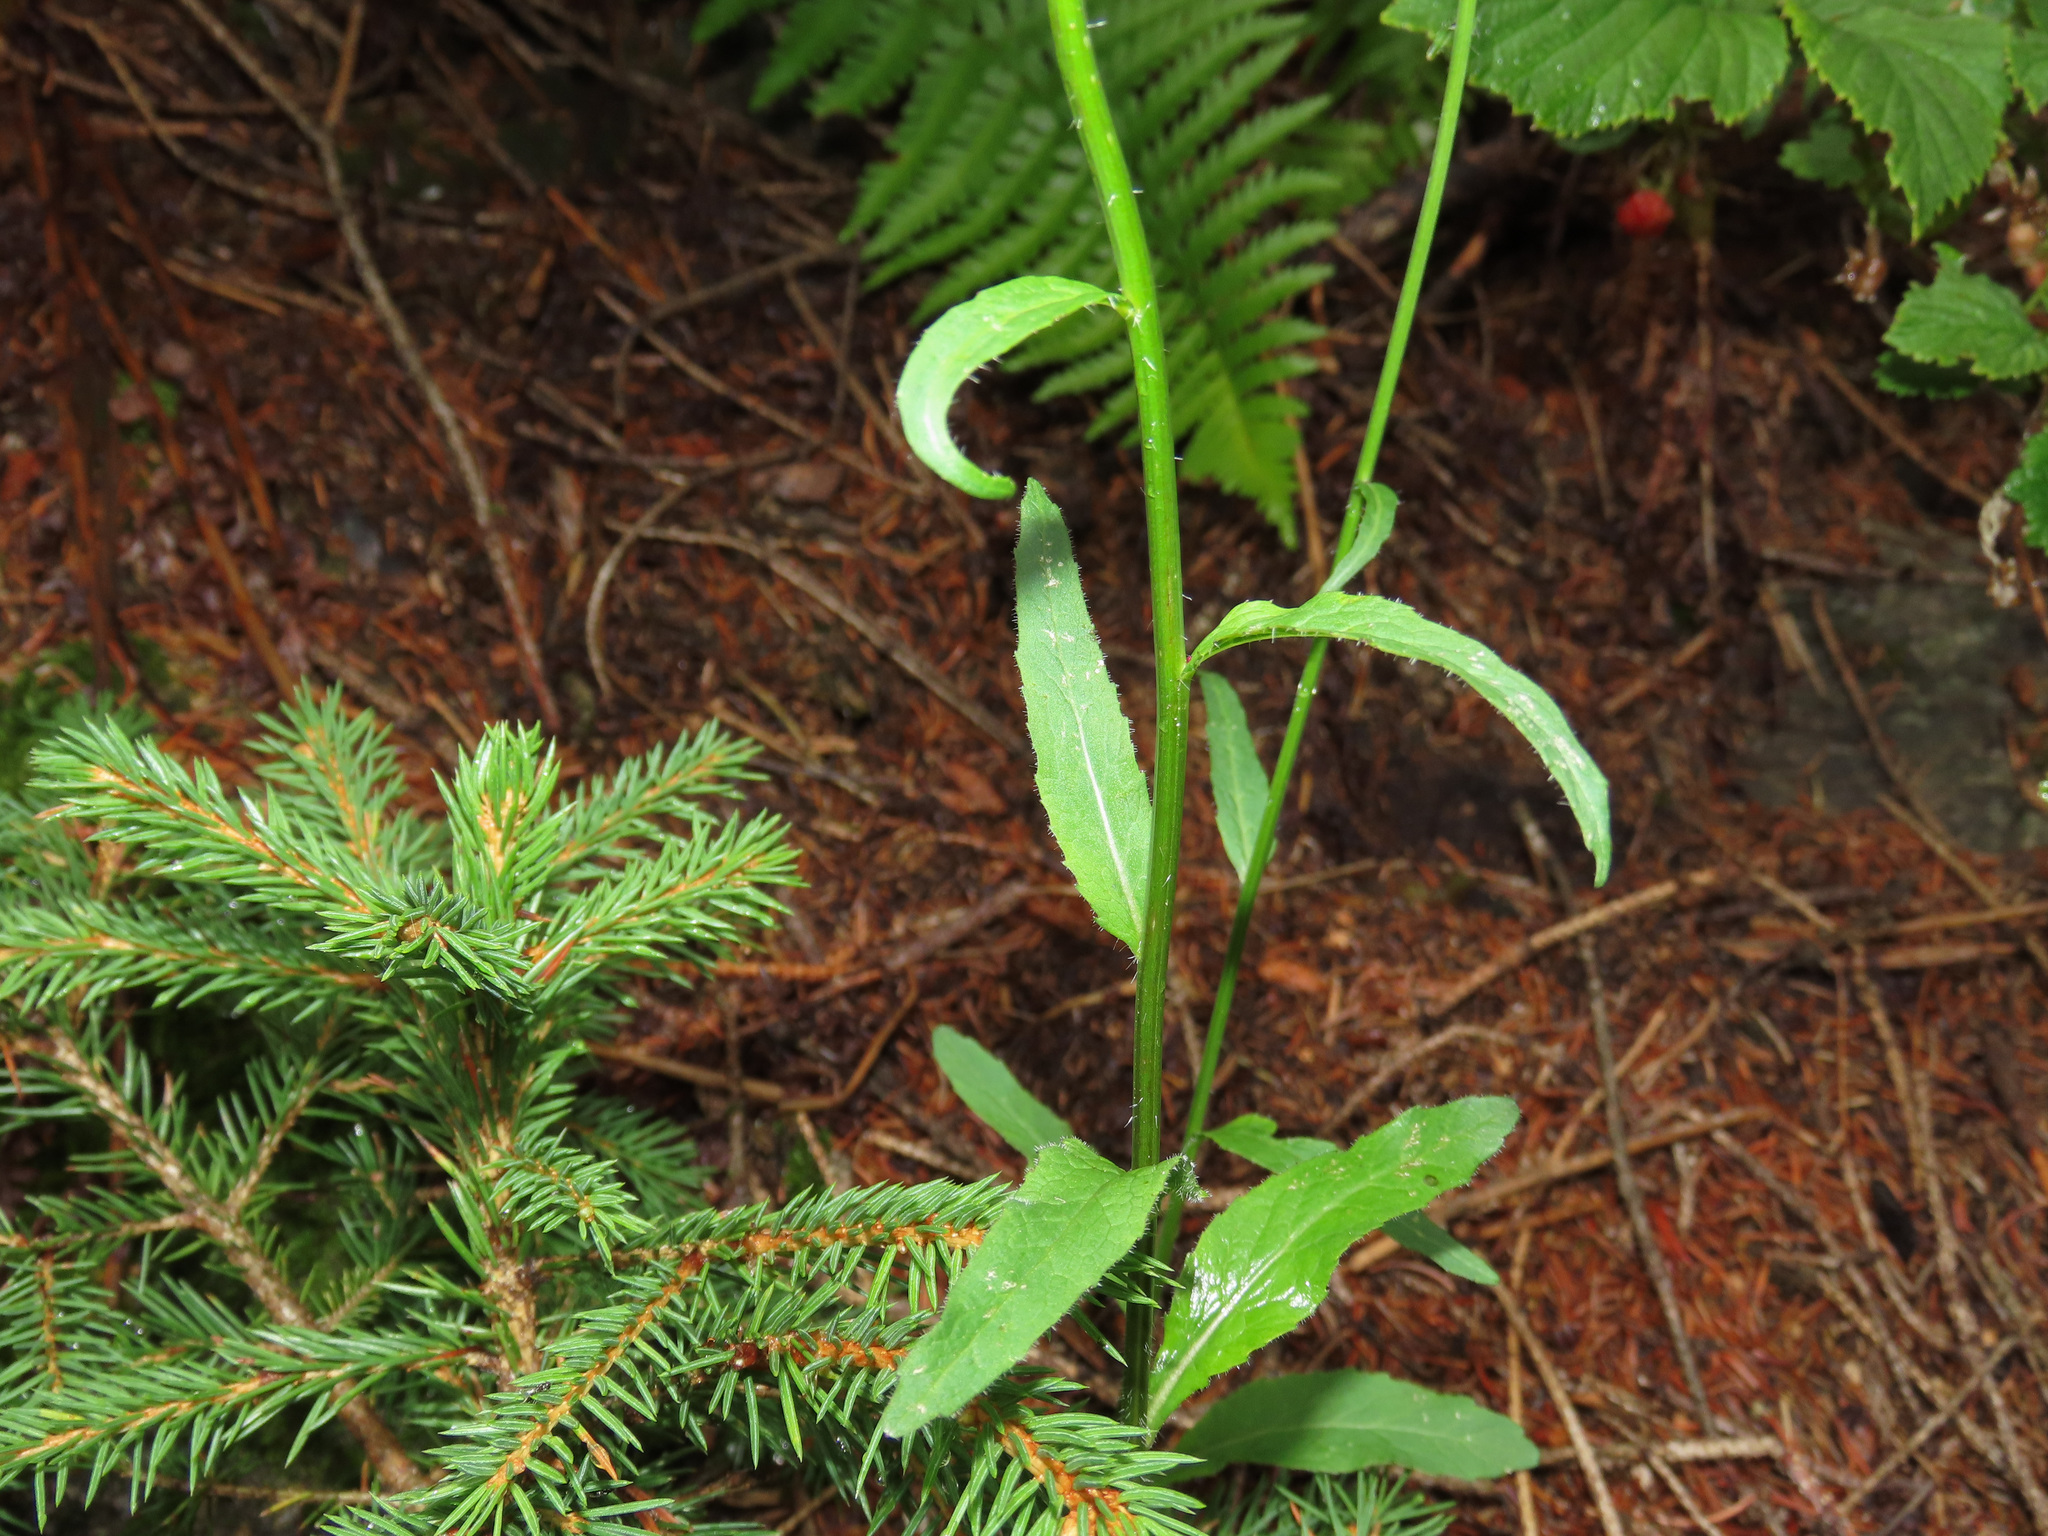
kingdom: Plantae
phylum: Tracheophyta
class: Magnoliopsida
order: Asterales
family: Campanulaceae
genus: Phyteuma
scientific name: Phyteuma betonicifolium
